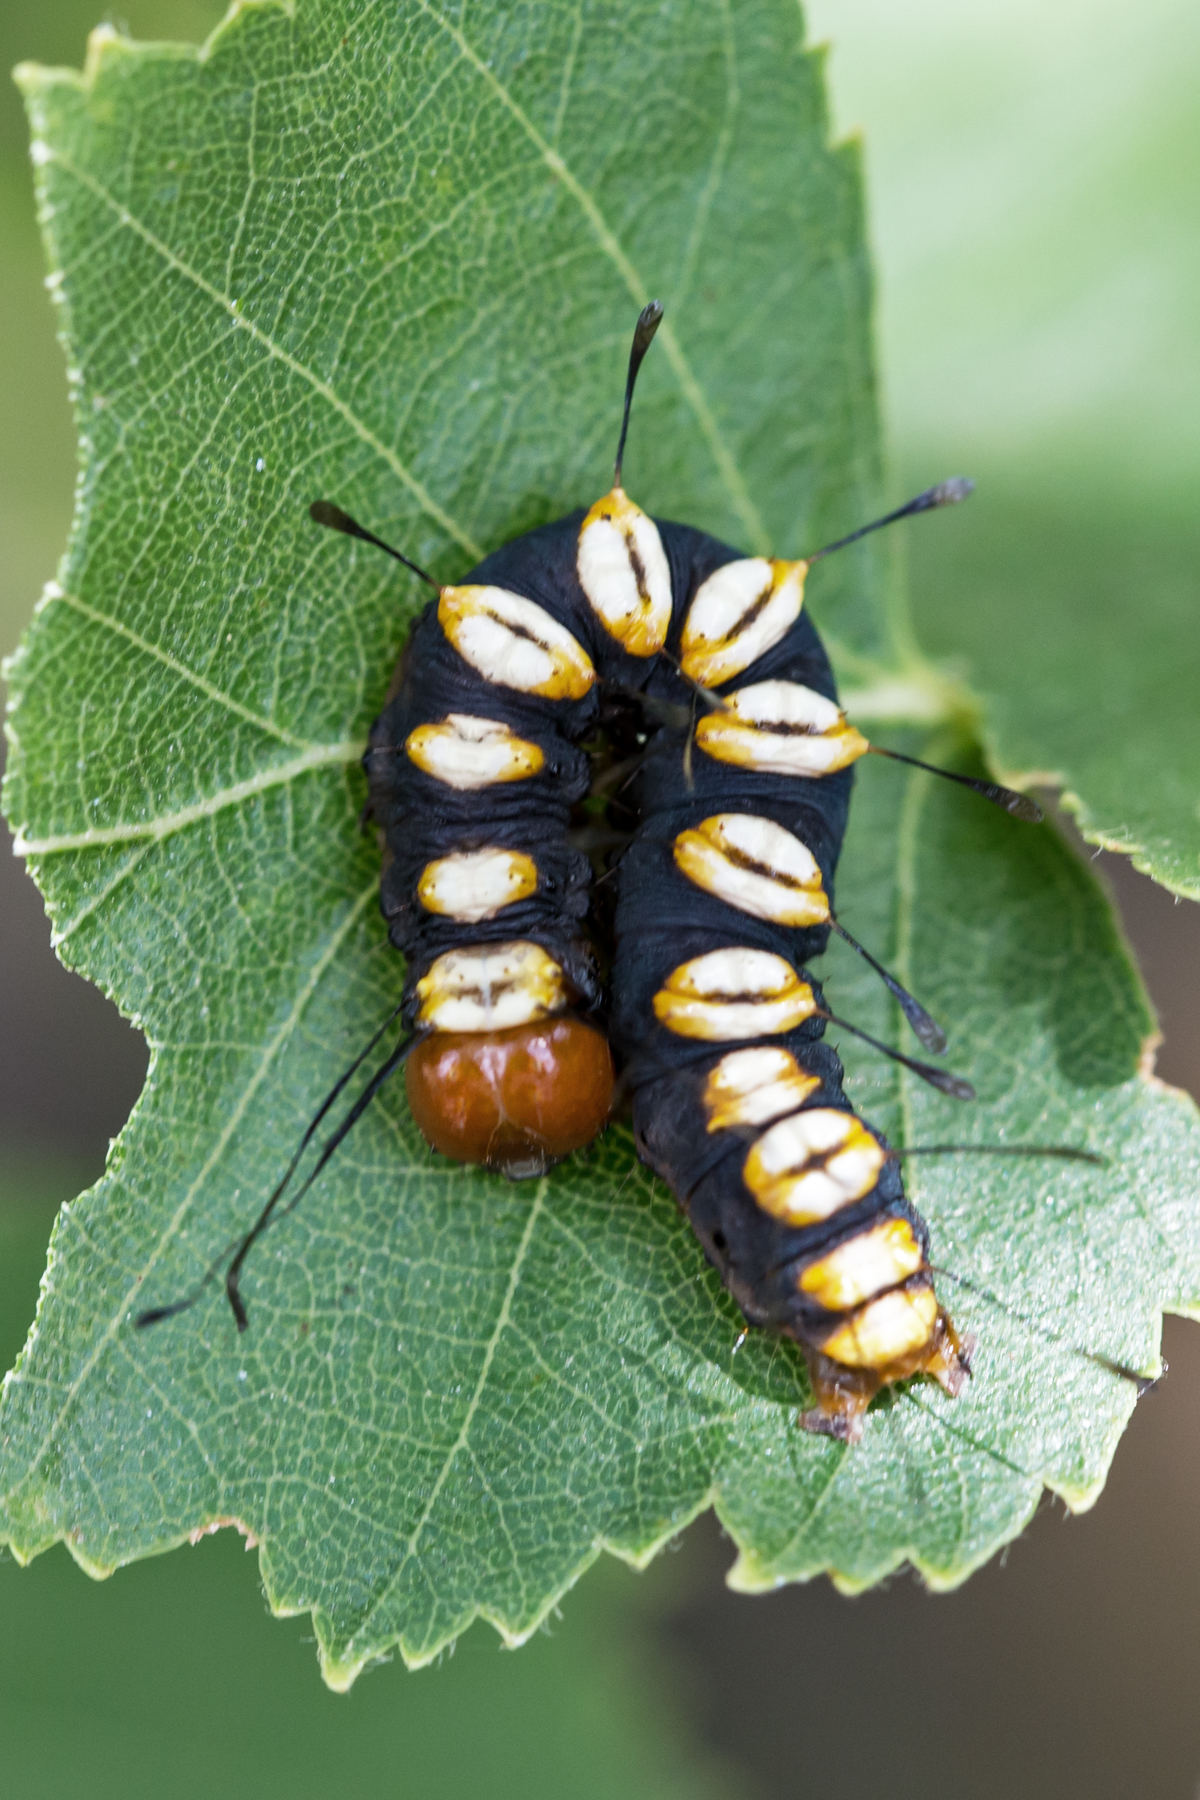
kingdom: Animalia
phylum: Arthropoda
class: Insecta
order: Lepidoptera
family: Noctuidae
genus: Acronicta
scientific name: Acronicta funeralis
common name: Funerary dagger
